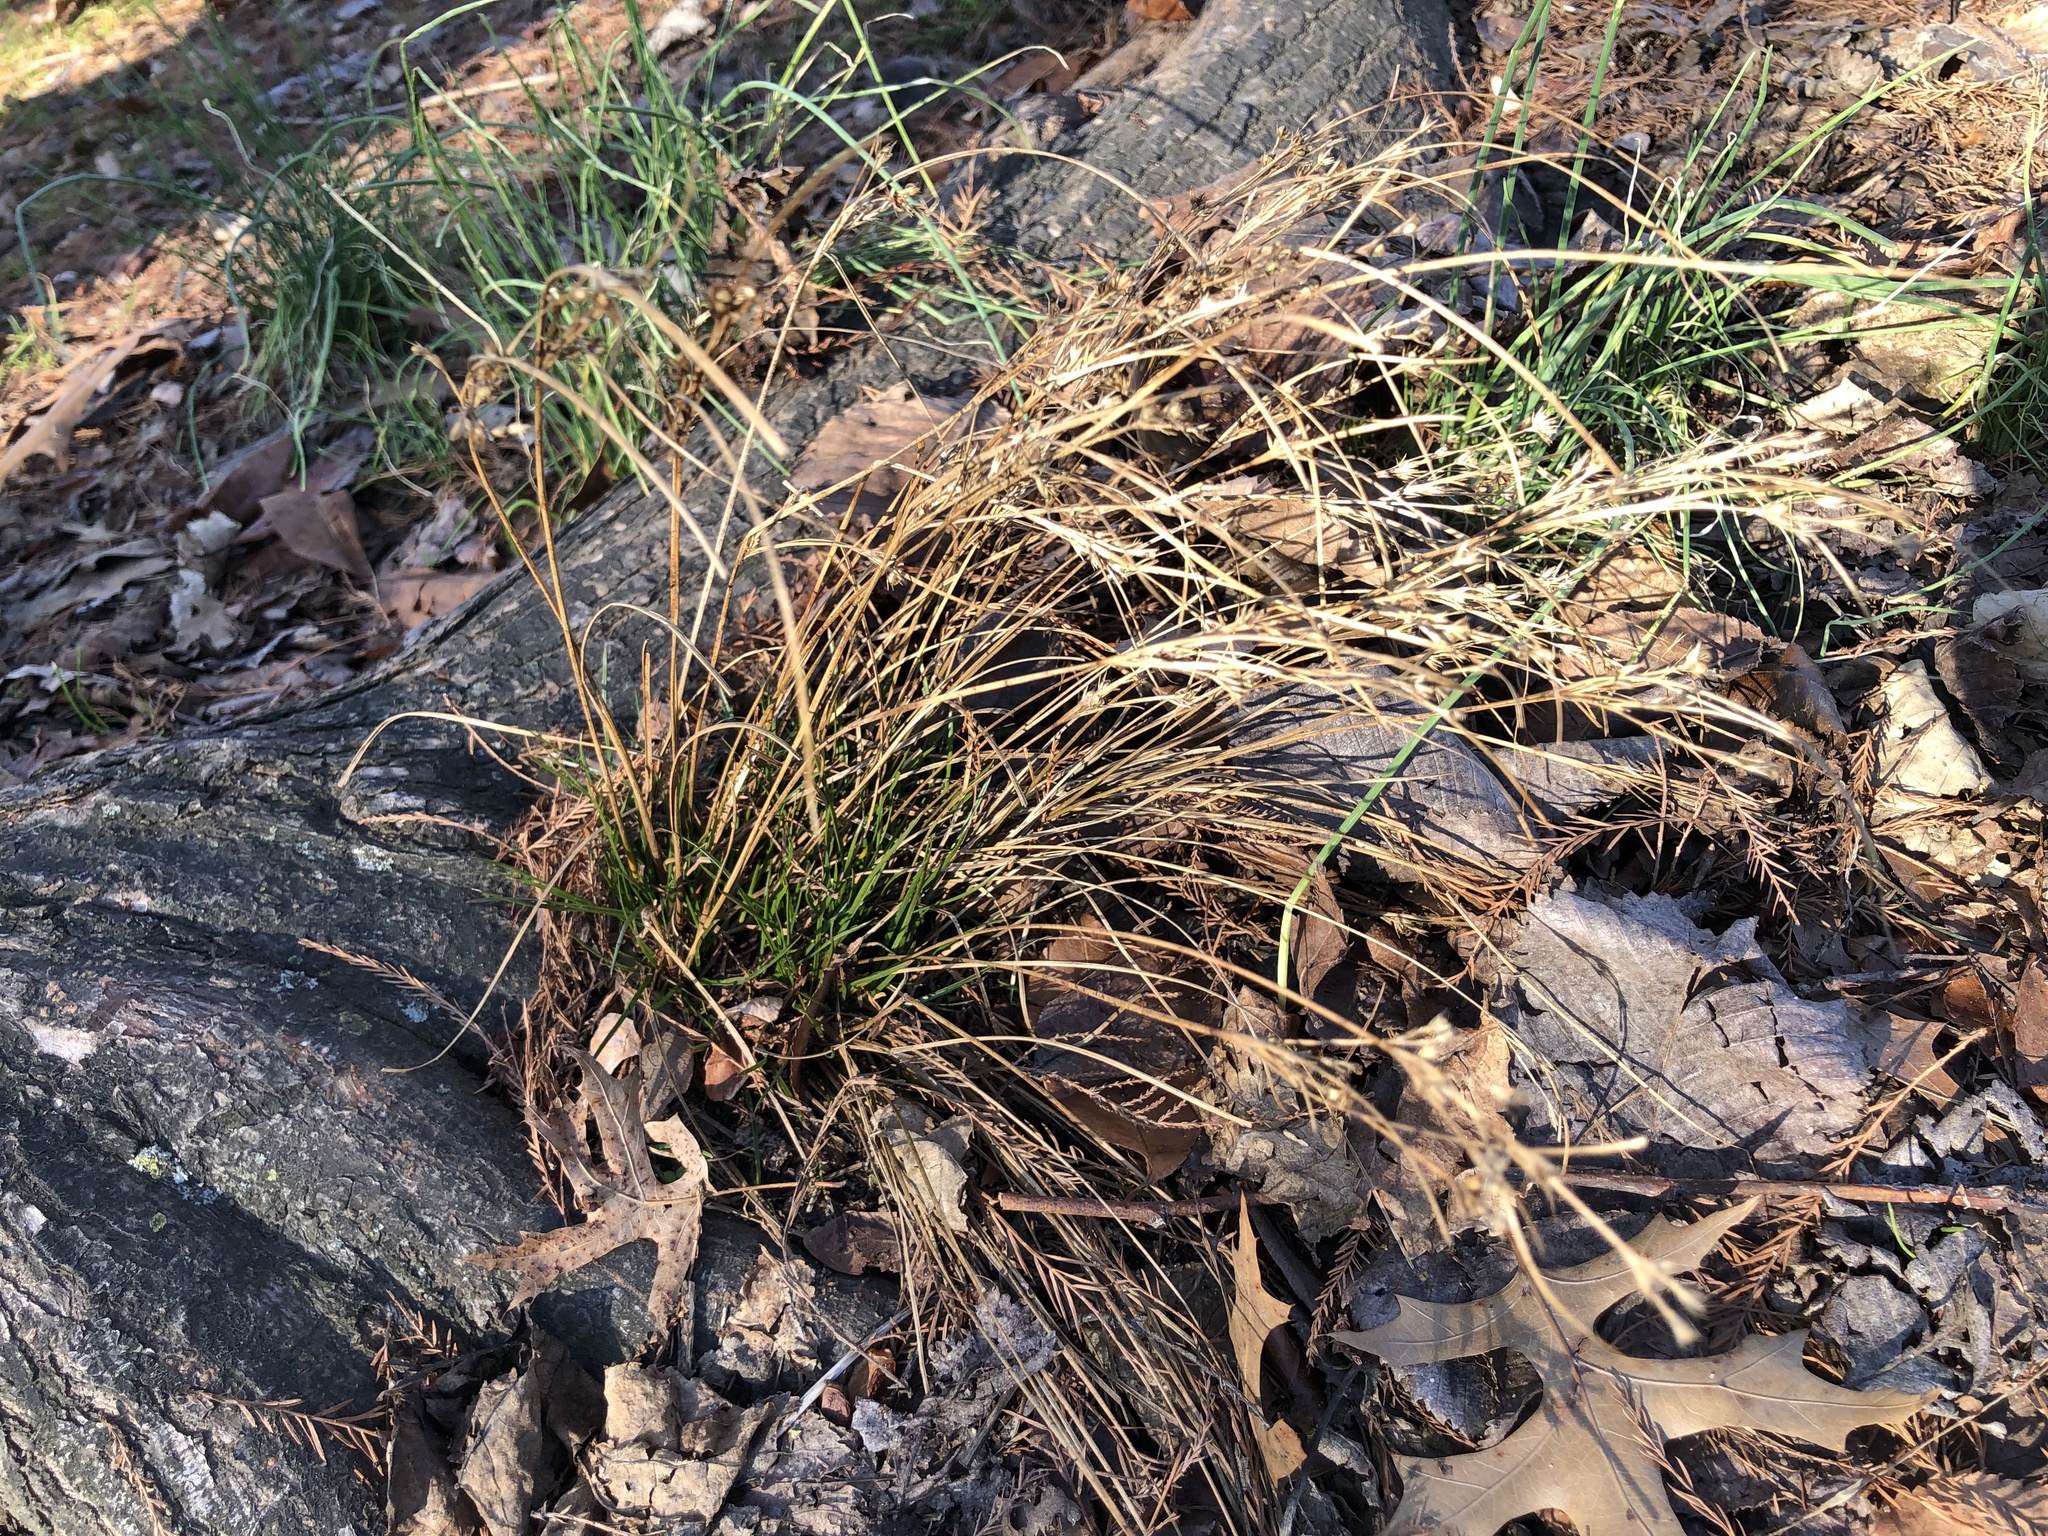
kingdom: Plantae
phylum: Tracheophyta
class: Liliopsida
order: Poales
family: Juncaceae
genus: Juncus
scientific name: Juncus tenuis
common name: Slender rush
